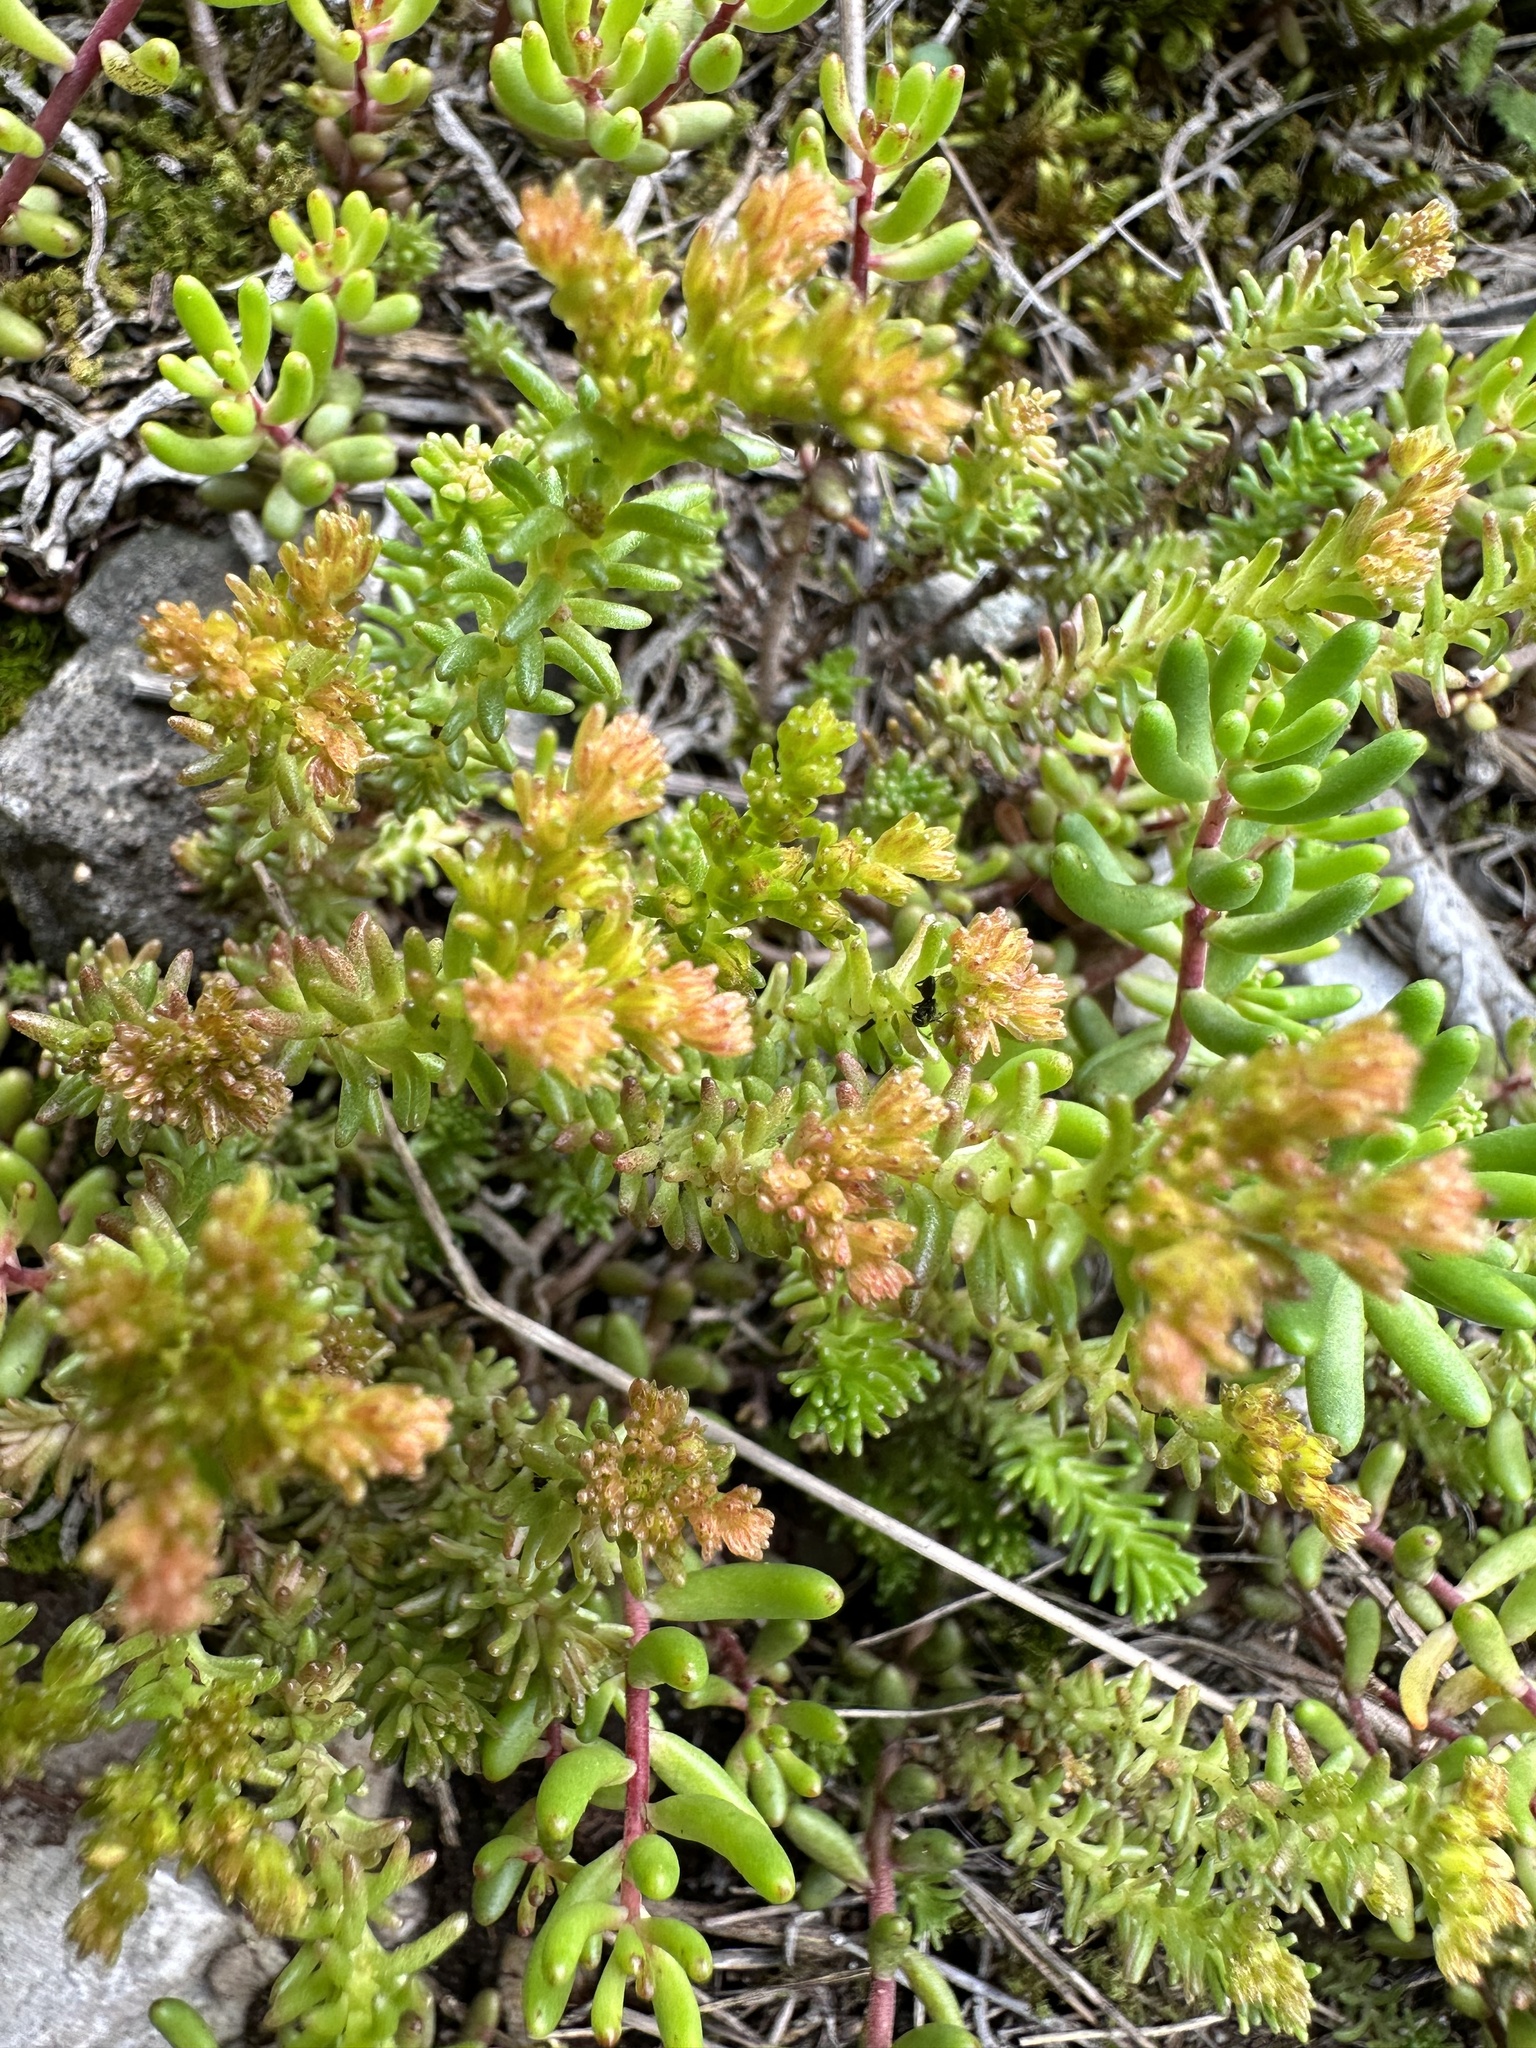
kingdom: Plantae
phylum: Tracheophyta
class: Magnoliopsida
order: Saxifragales
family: Crassulaceae
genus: Sedum
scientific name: Sedum sexangulare
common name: Tasteless stonecrop
